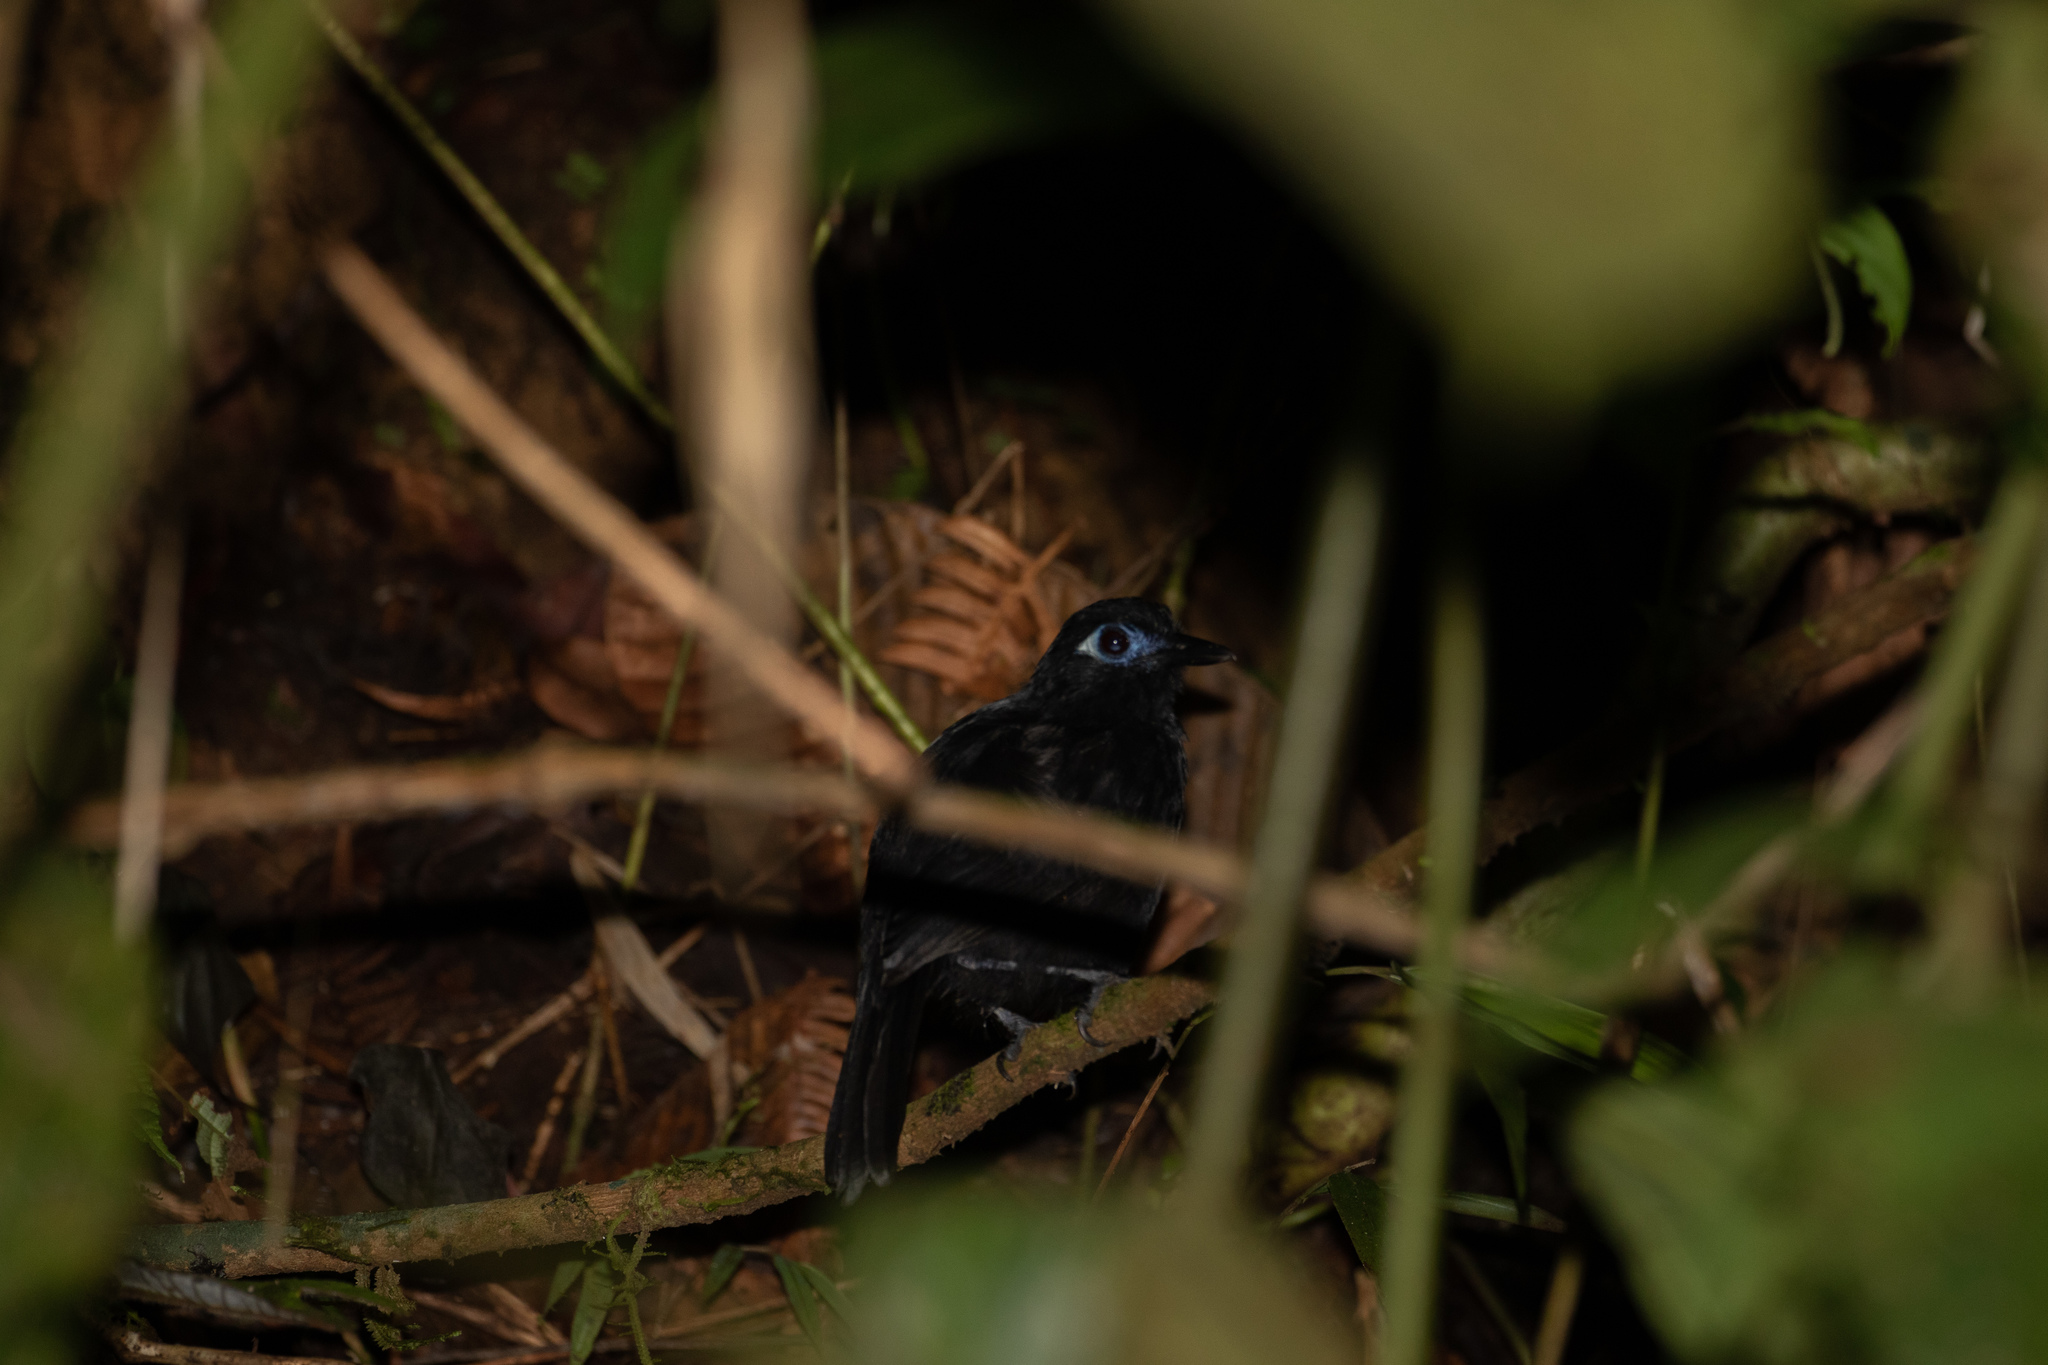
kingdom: Animalia
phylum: Chordata
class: Aves
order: Passeriformes
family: Thamnophilidae
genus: Hafferia
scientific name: Hafferia zeledoni
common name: Zeledon's antbird
